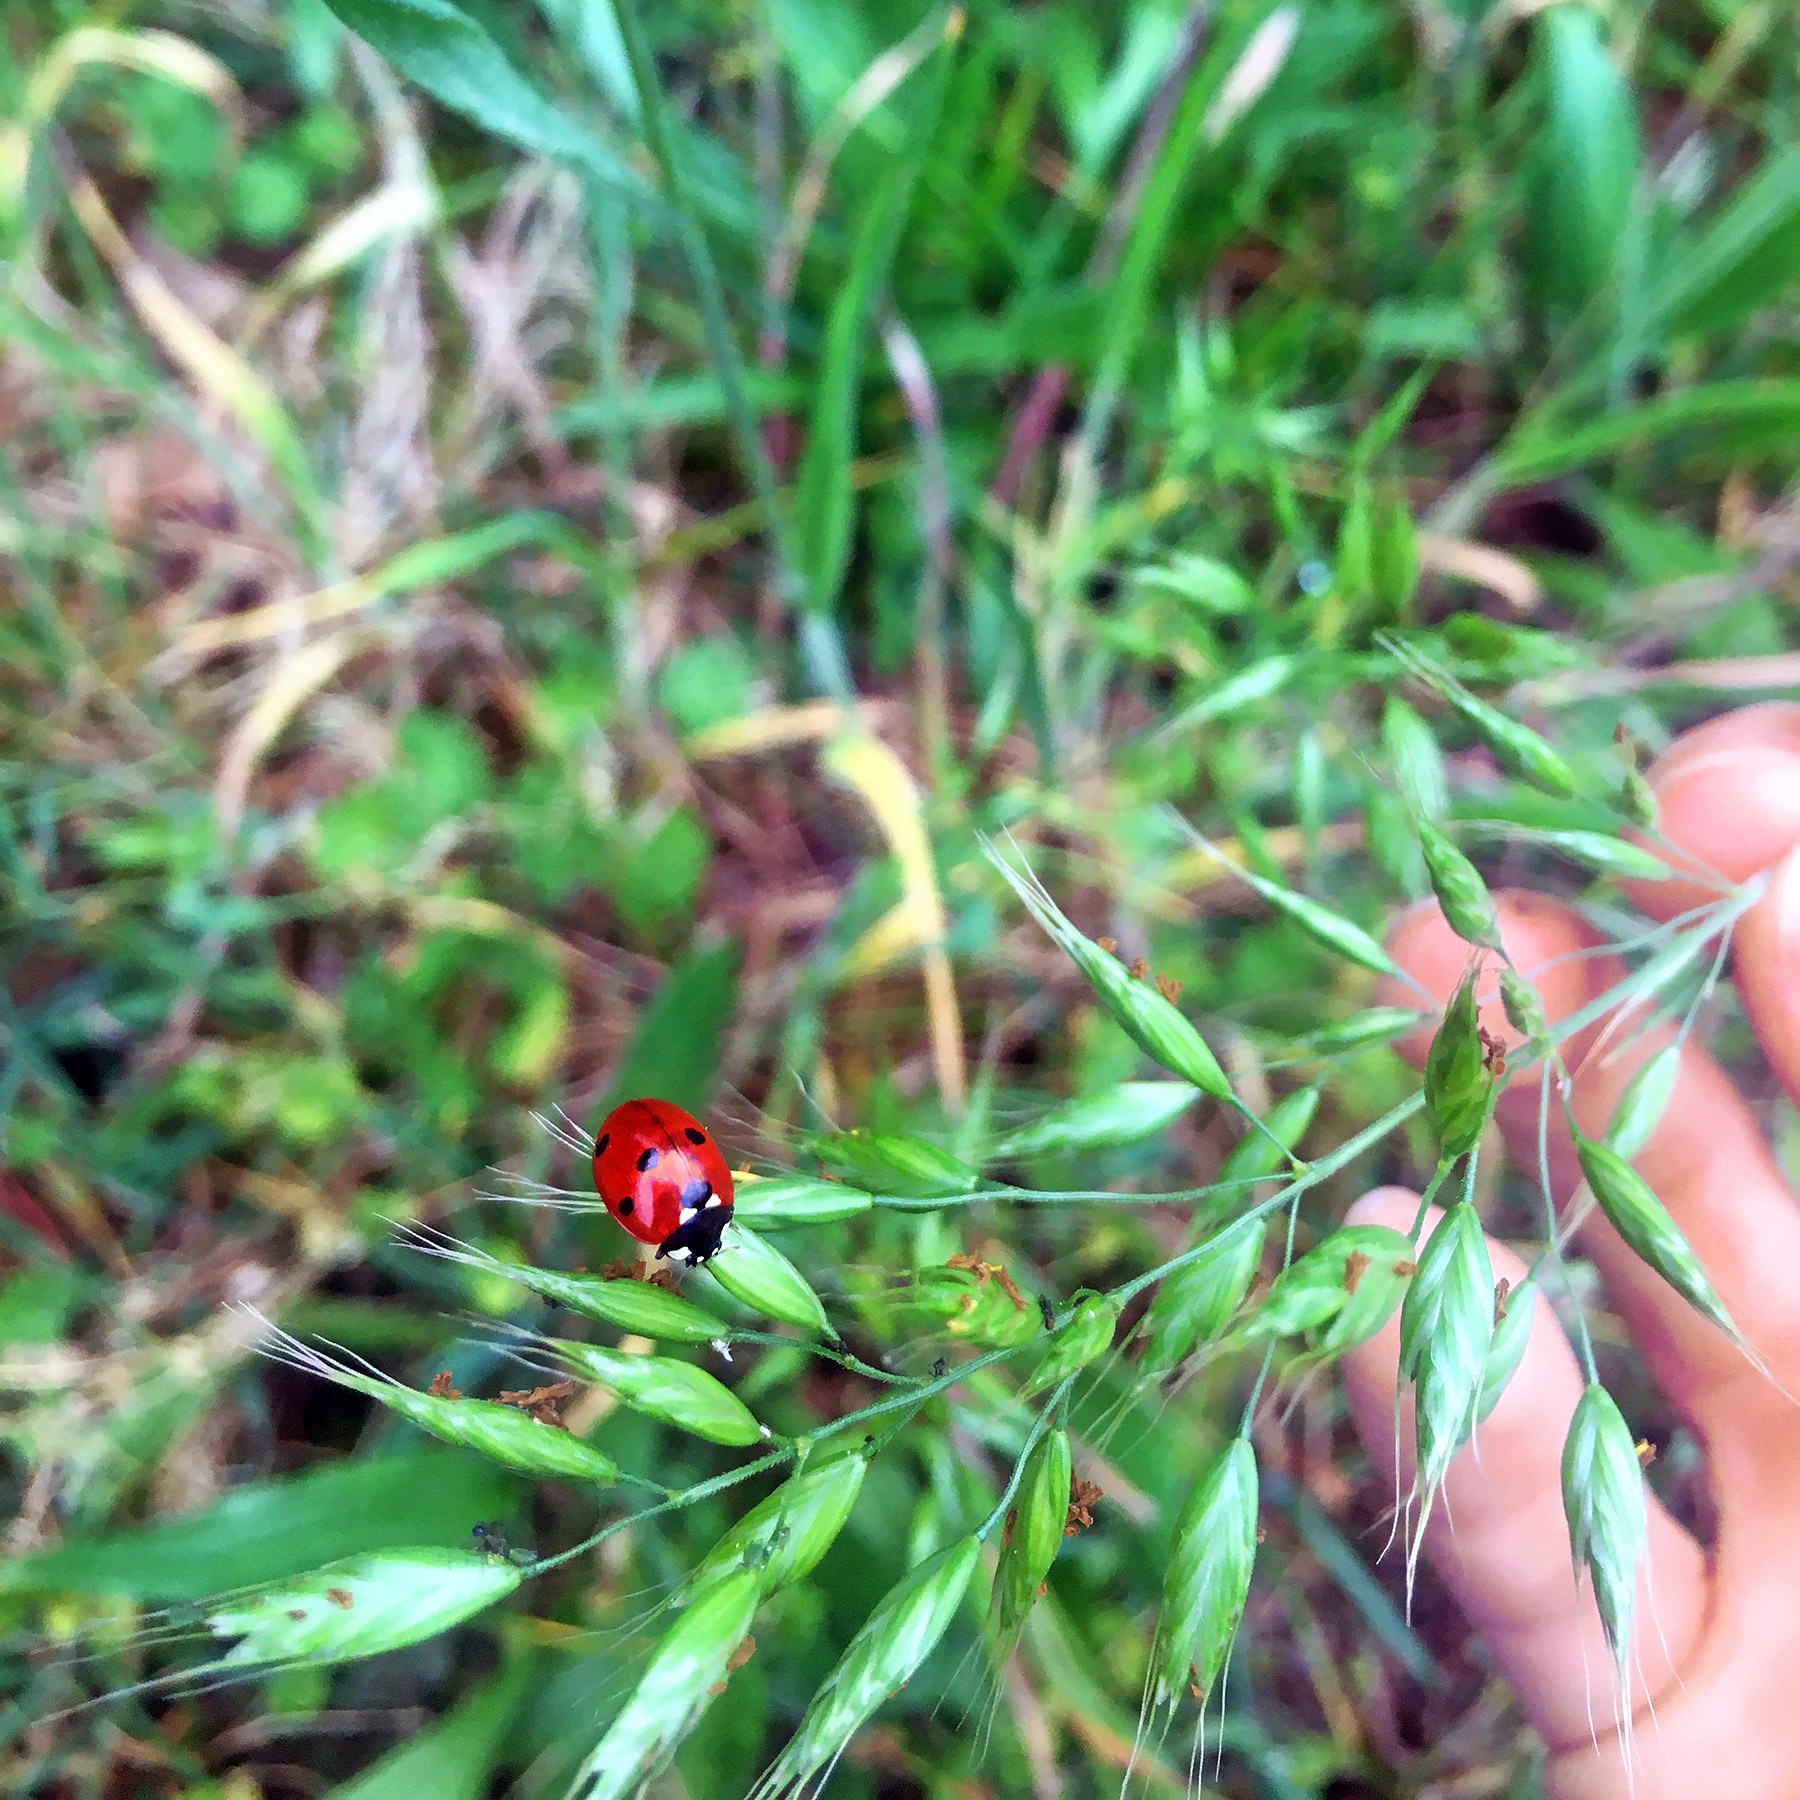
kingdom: Animalia
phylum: Arthropoda
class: Insecta
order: Coleoptera
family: Coccinellidae
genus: Coccinella
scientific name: Coccinella septempunctata
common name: Sevenspotted lady beetle
